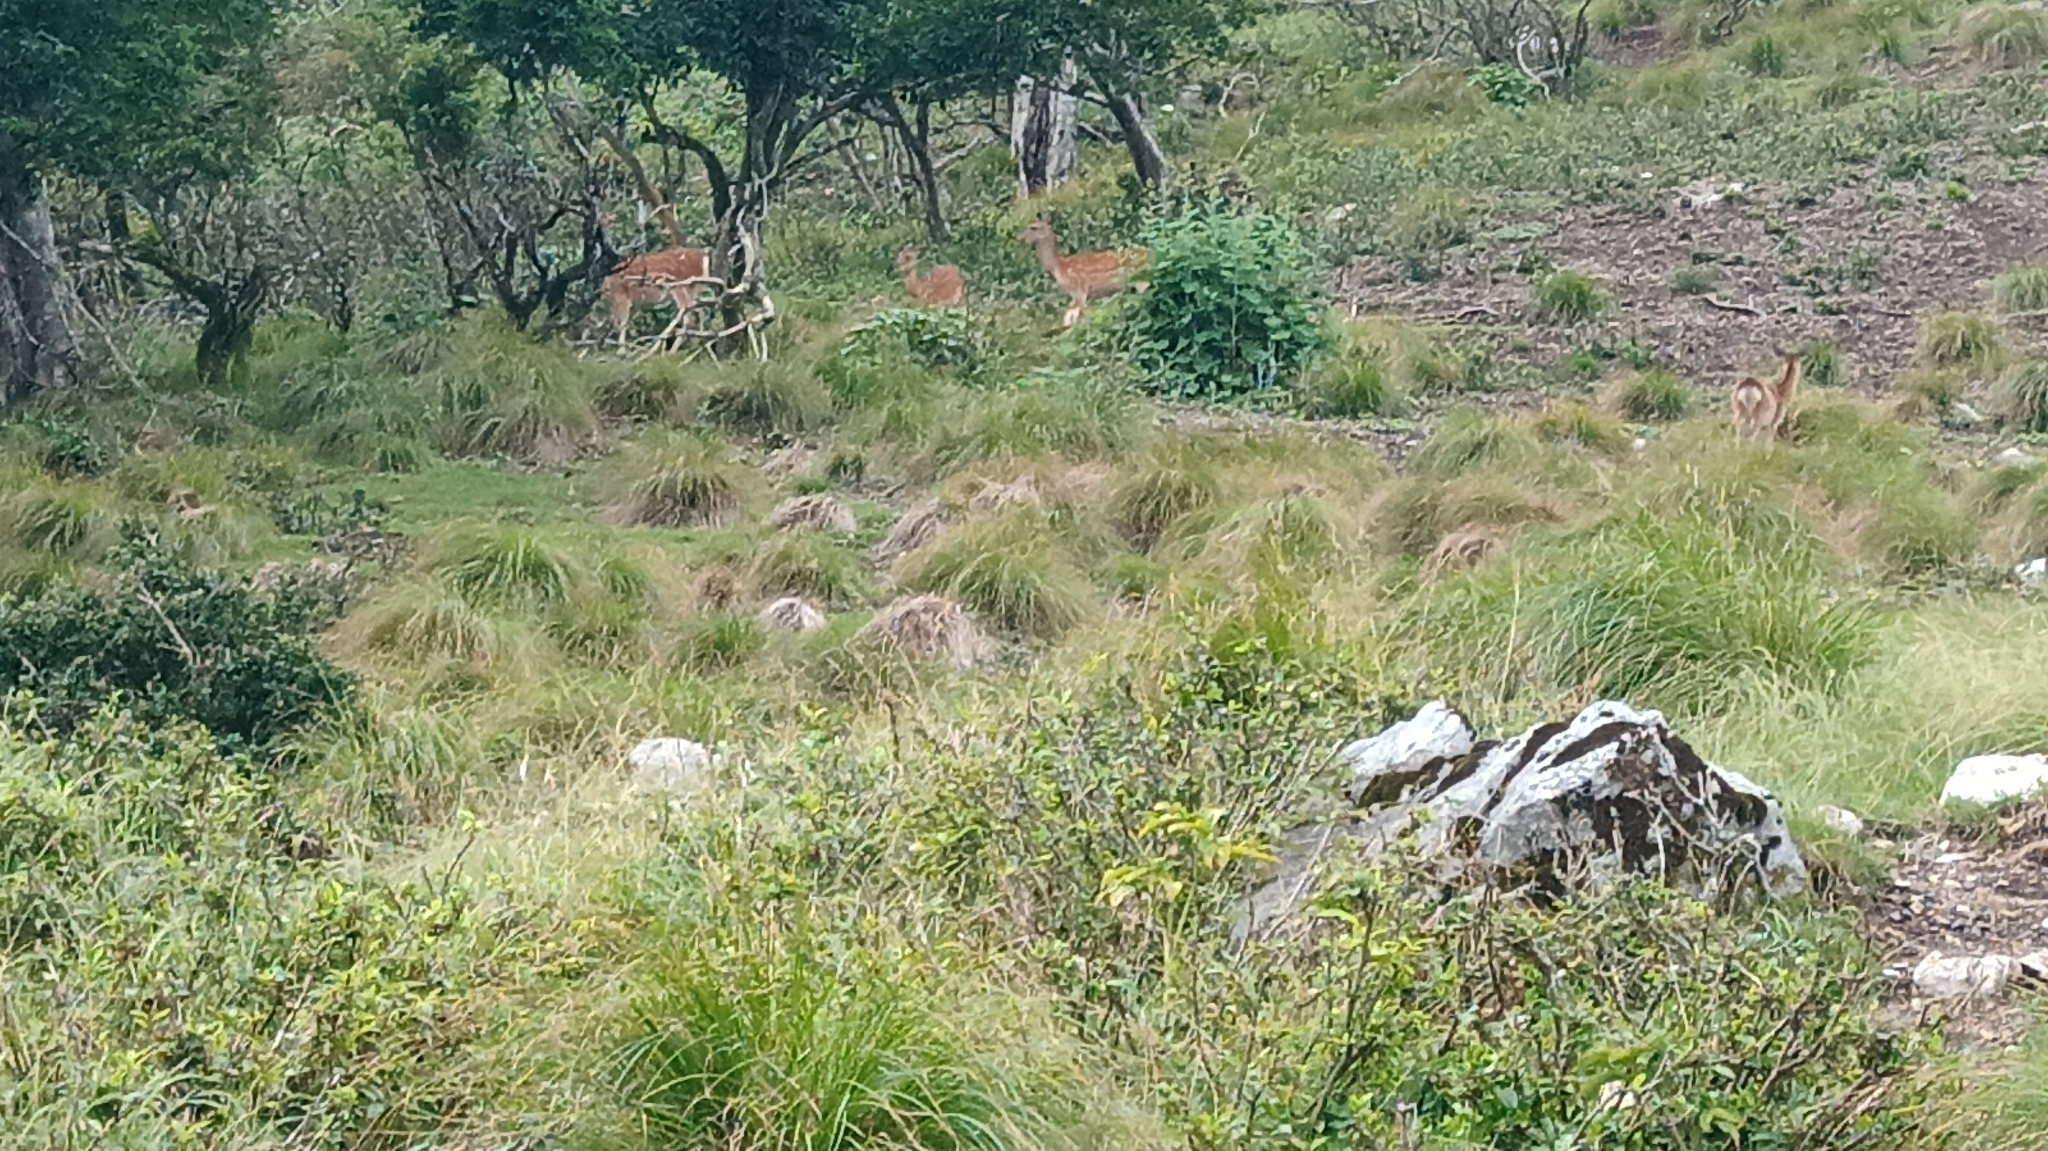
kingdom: Animalia
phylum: Chordata
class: Mammalia
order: Artiodactyla
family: Cervidae
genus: Cervus
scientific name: Cervus nippon
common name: Sika deer
